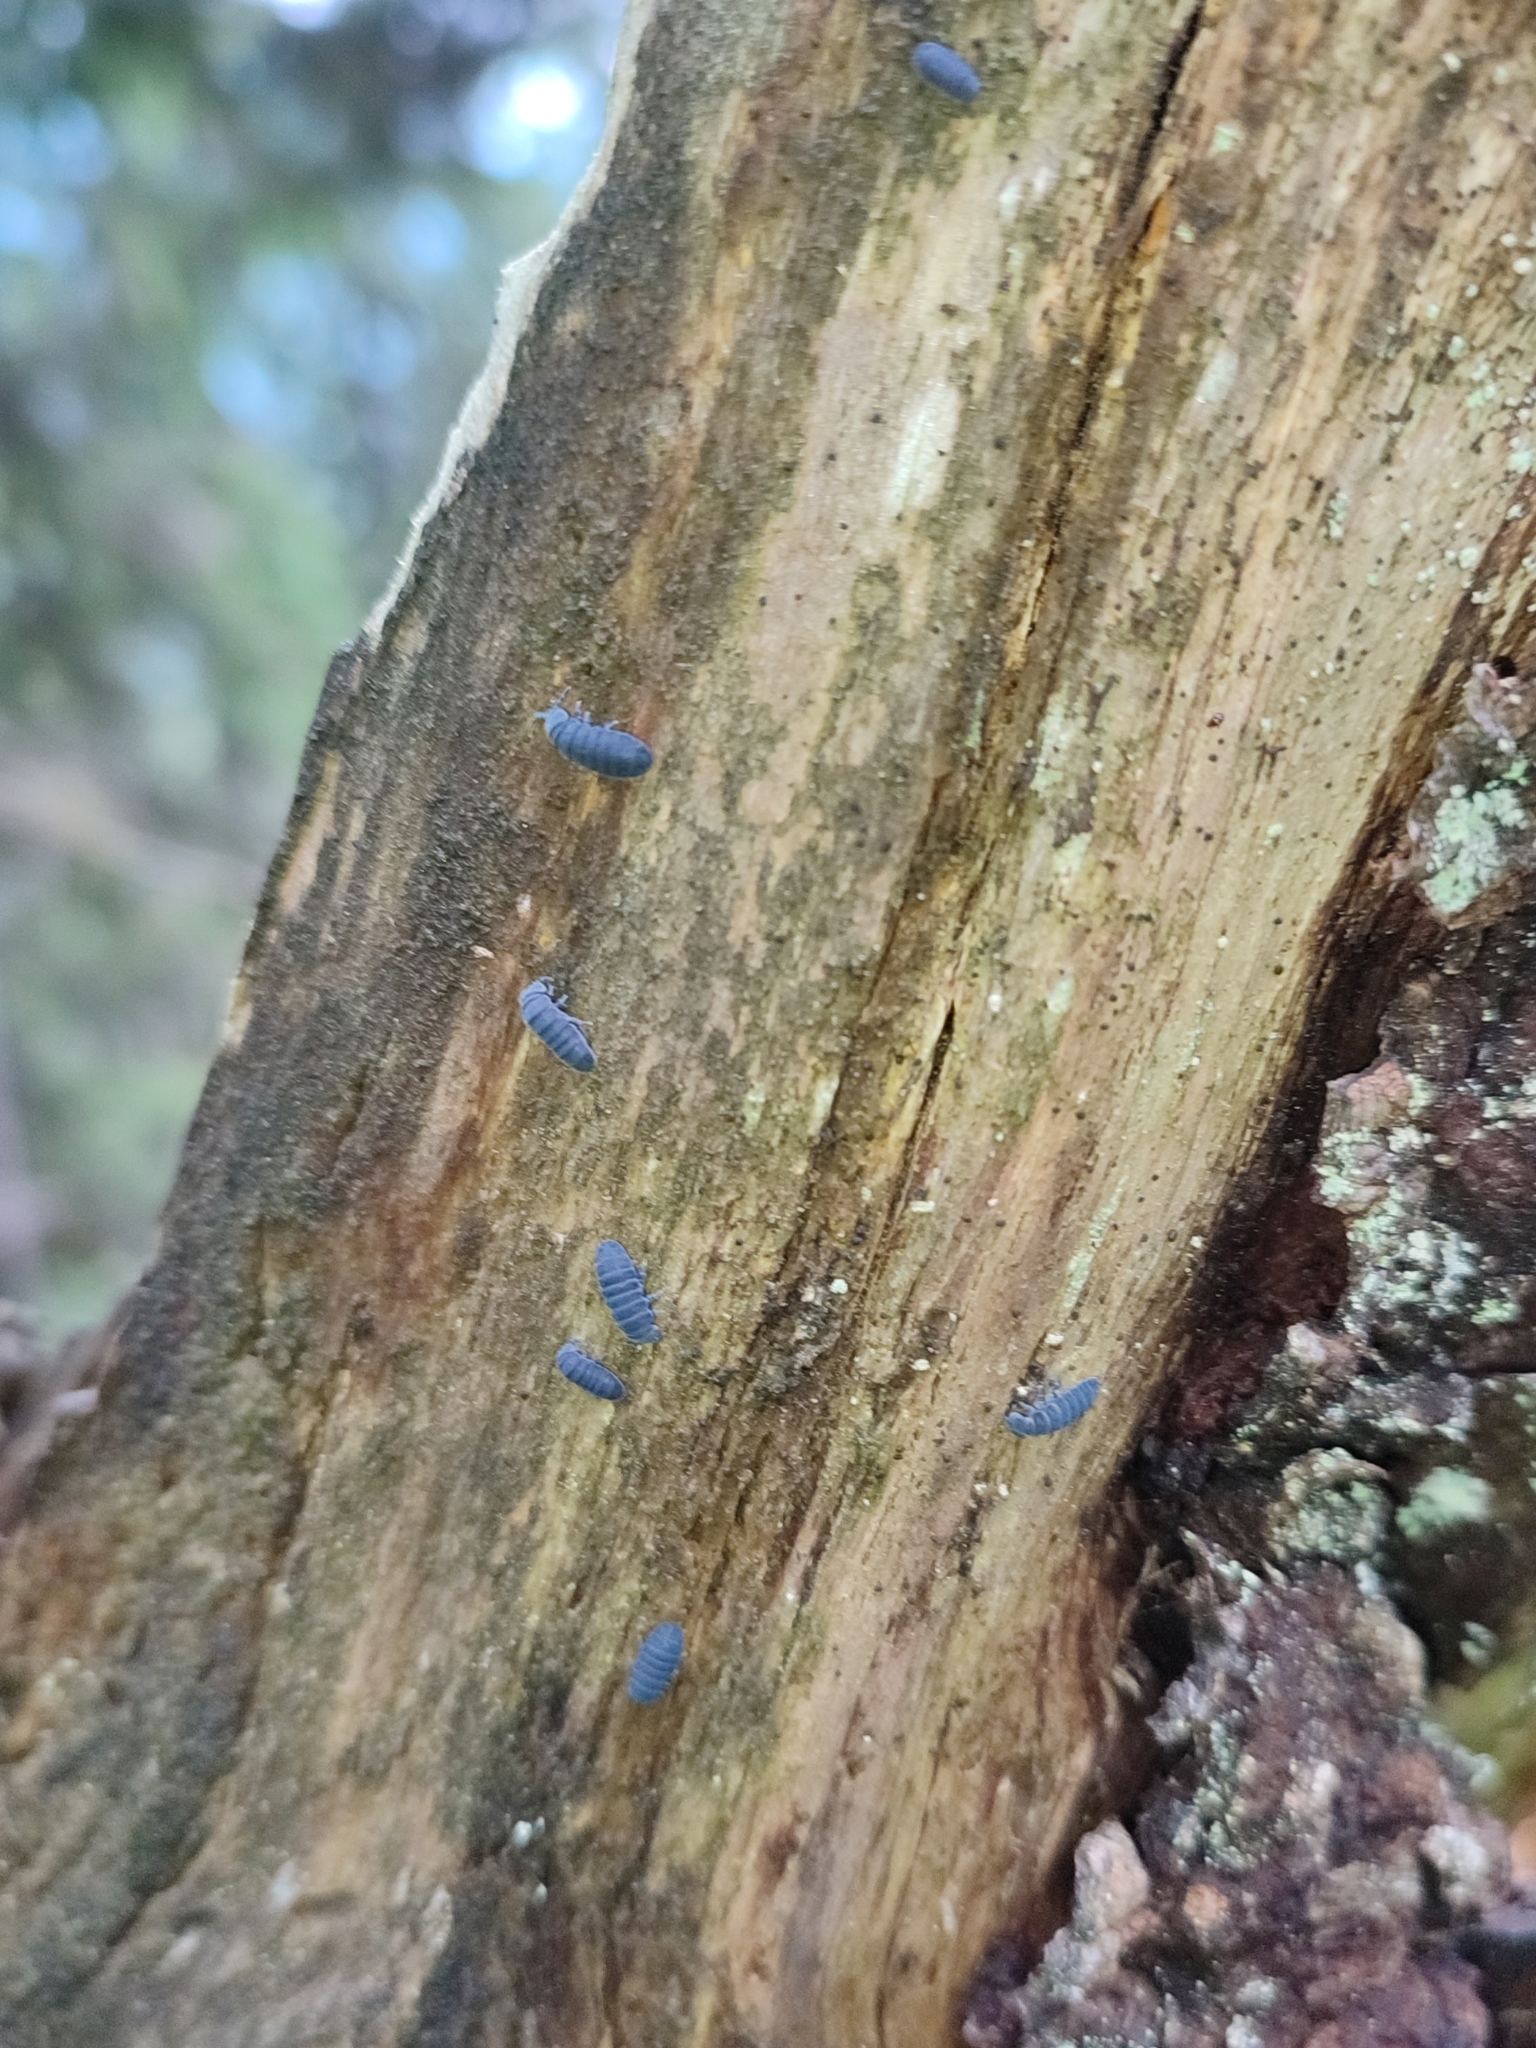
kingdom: Animalia
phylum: Arthropoda
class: Collembola
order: Poduromorpha
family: Onychiuridae
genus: Tetrodontophora
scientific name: Tetrodontophora bielanensis
